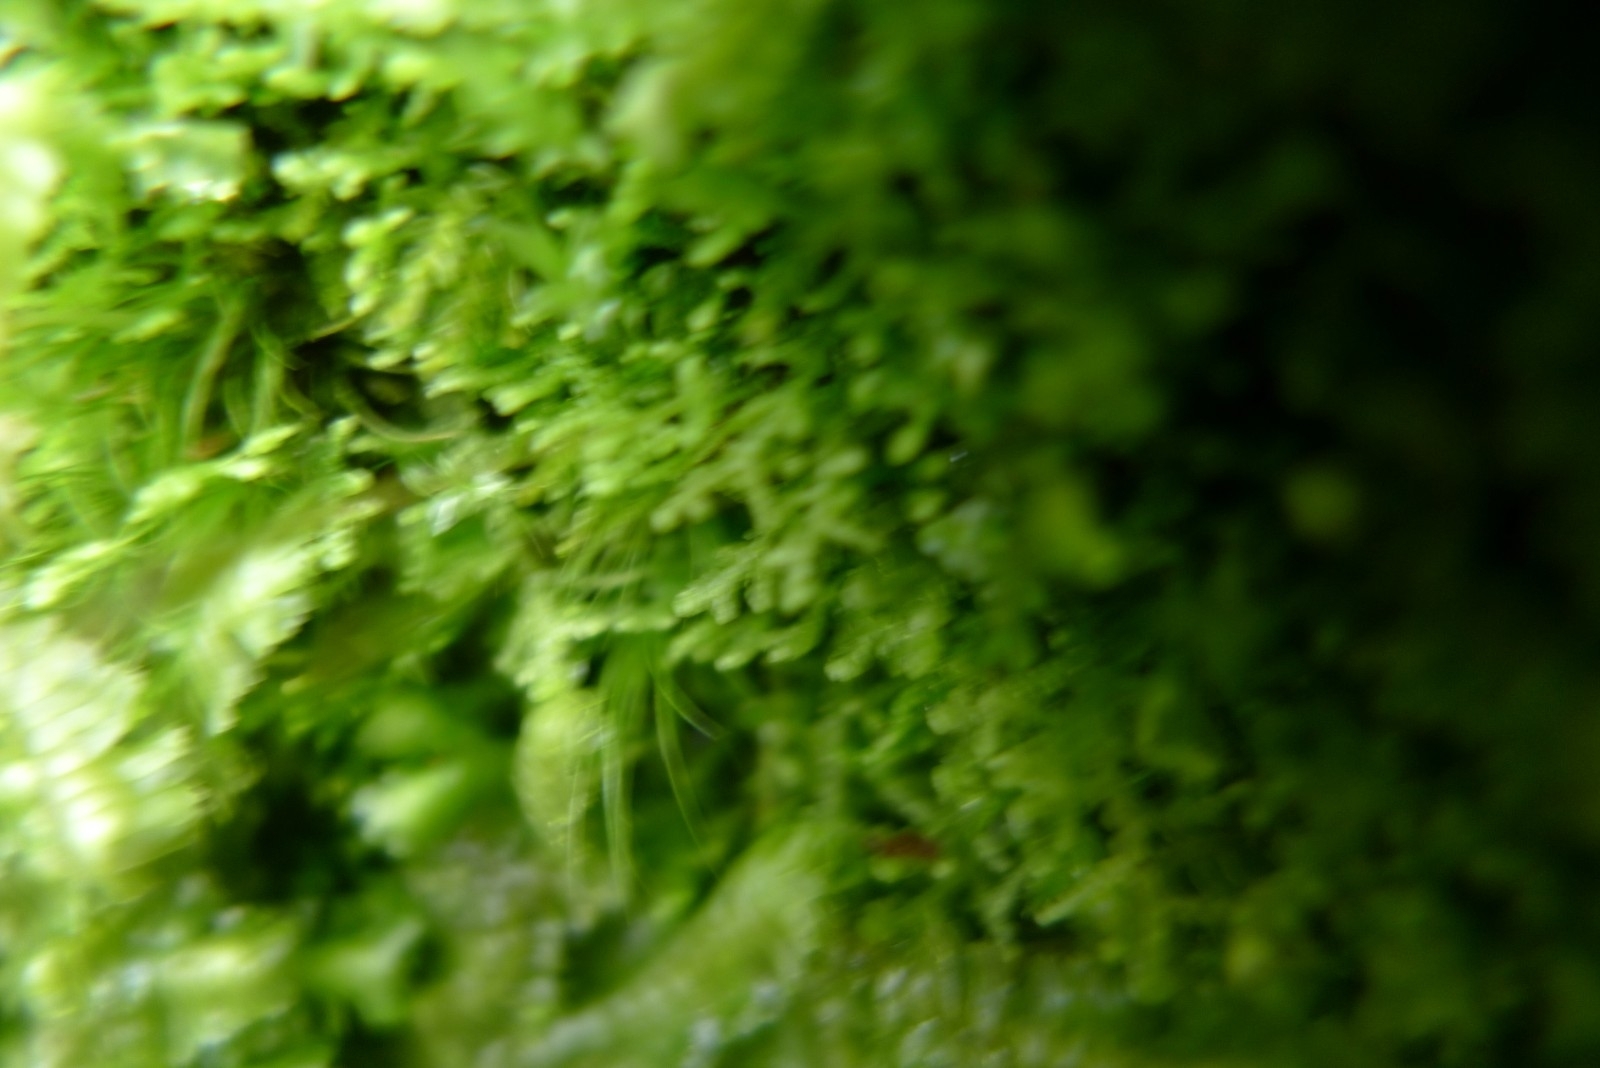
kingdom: Plantae
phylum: Marchantiophyta
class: Jungermanniopsida
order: Jungermanniales
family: Lepidoziaceae
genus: Lepidozia
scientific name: Lepidozia reptans
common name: Creeping fingerwort
